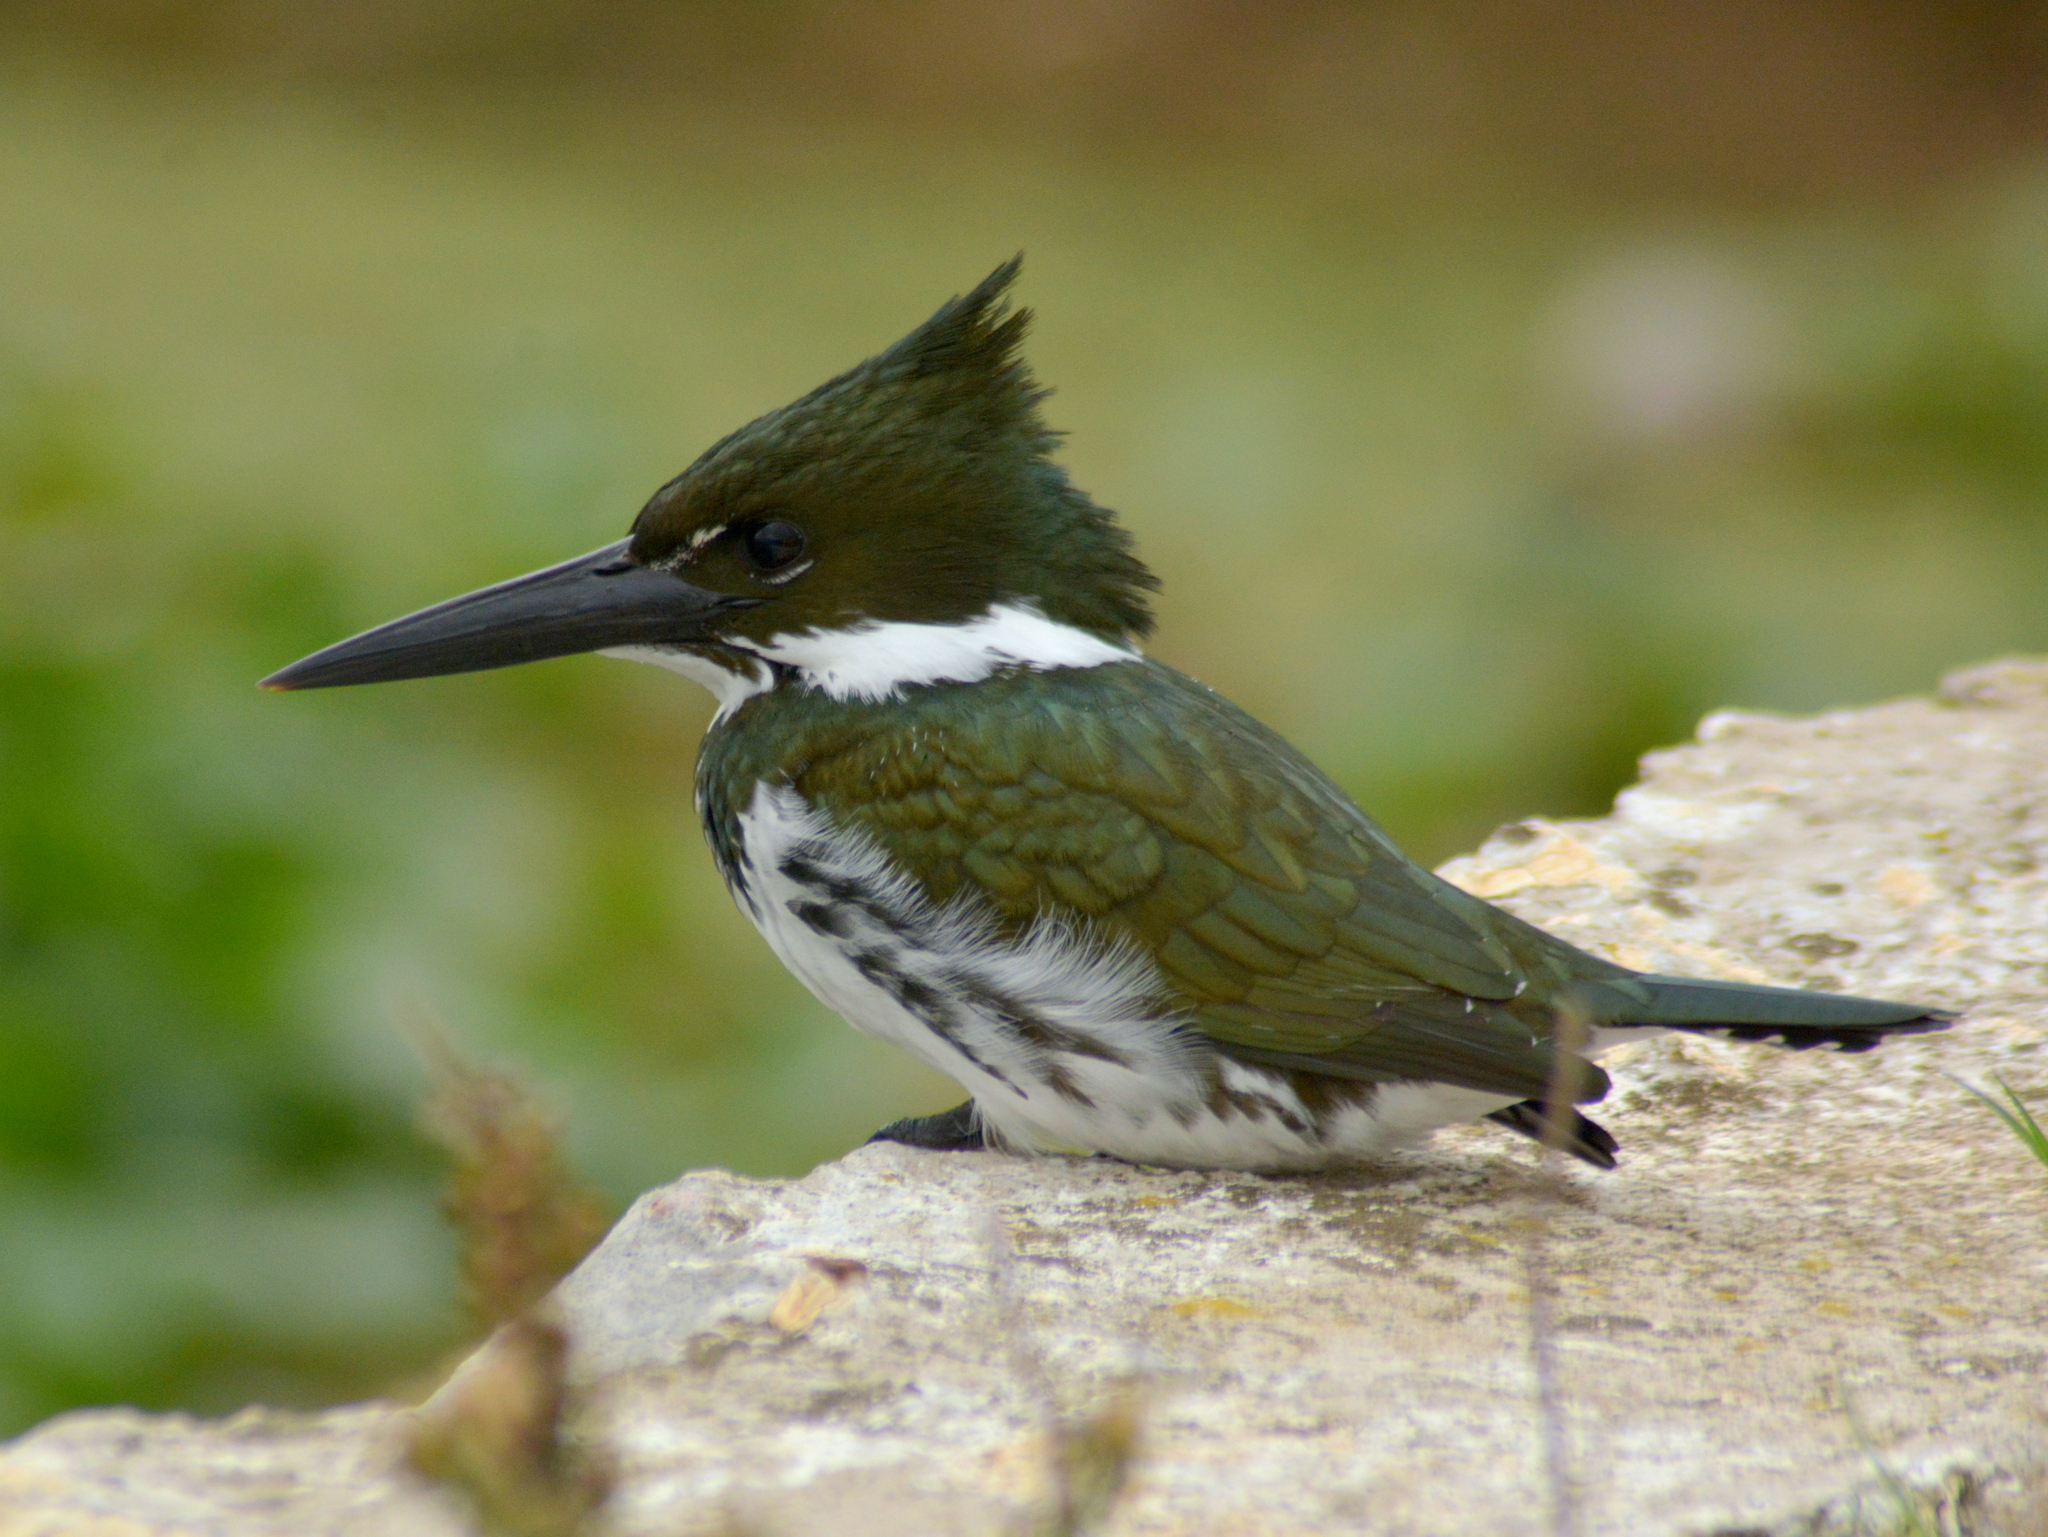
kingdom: Animalia
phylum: Chordata
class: Aves
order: Coraciiformes
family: Alcedinidae
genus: Chloroceryle
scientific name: Chloroceryle amazona
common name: Amazon kingfisher
